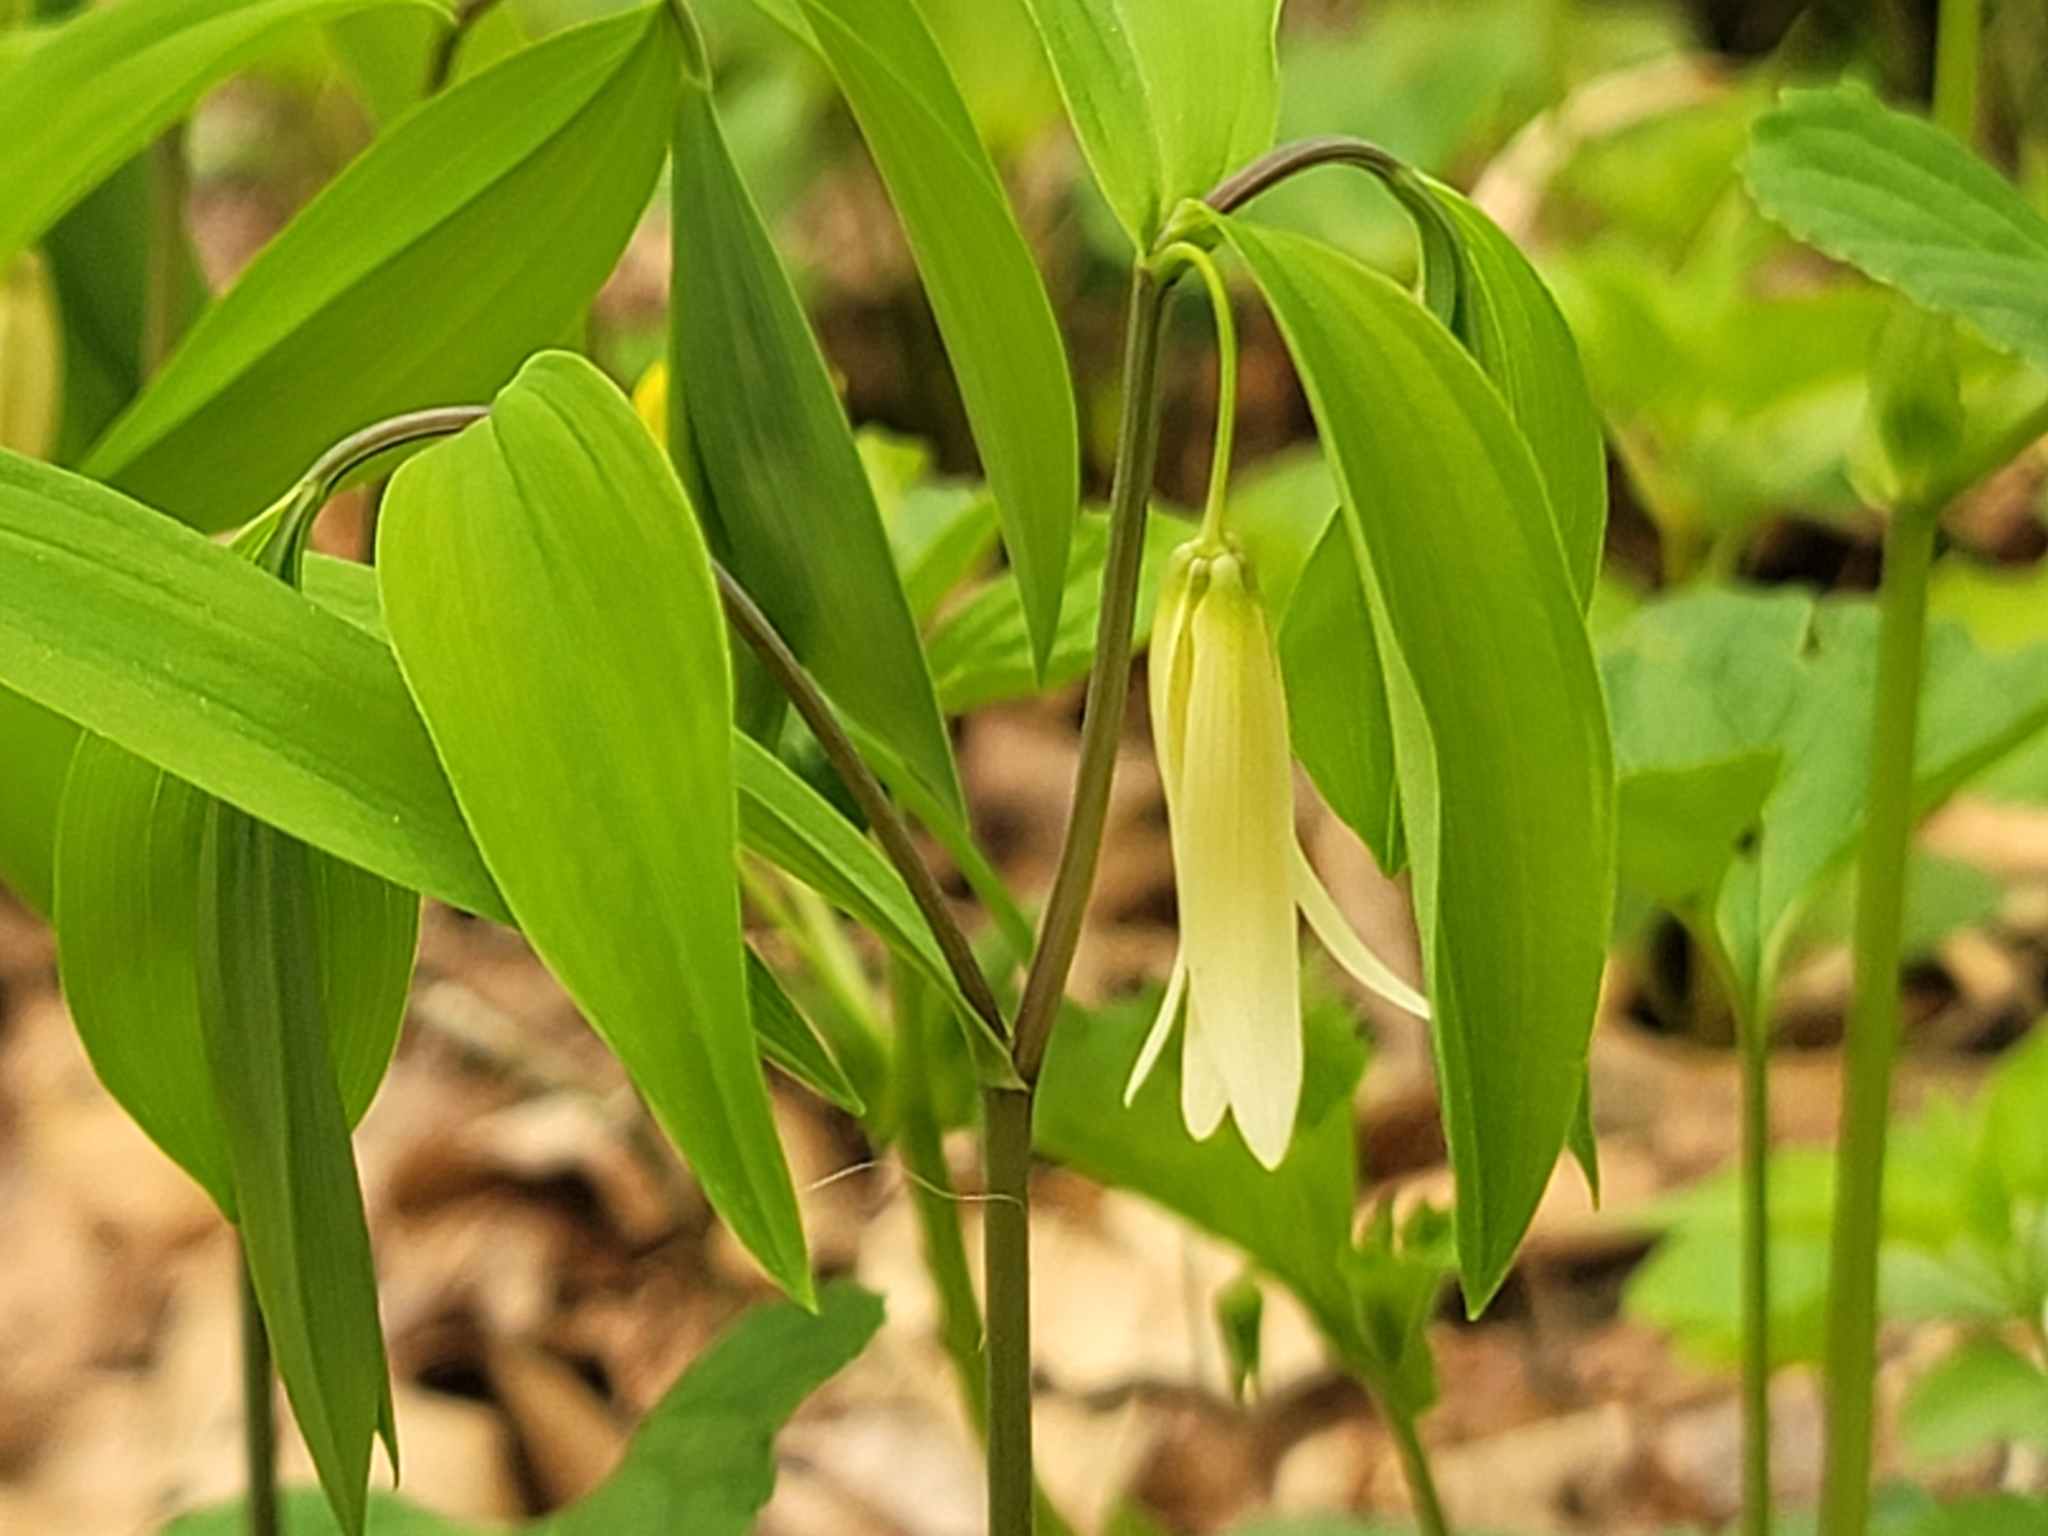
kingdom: Plantae
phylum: Tracheophyta
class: Liliopsida
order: Liliales
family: Colchicaceae
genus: Uvularia
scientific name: Uvularia sessilifolia
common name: Straw-lily
